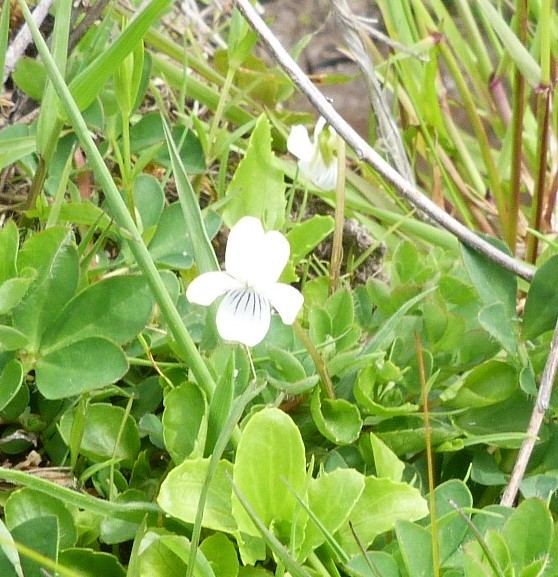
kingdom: Plantae
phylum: Tracheophyta
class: Magnoliopsida
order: Malpighiales
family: Violaceae
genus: Viola
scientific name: Viola cunninghamii
